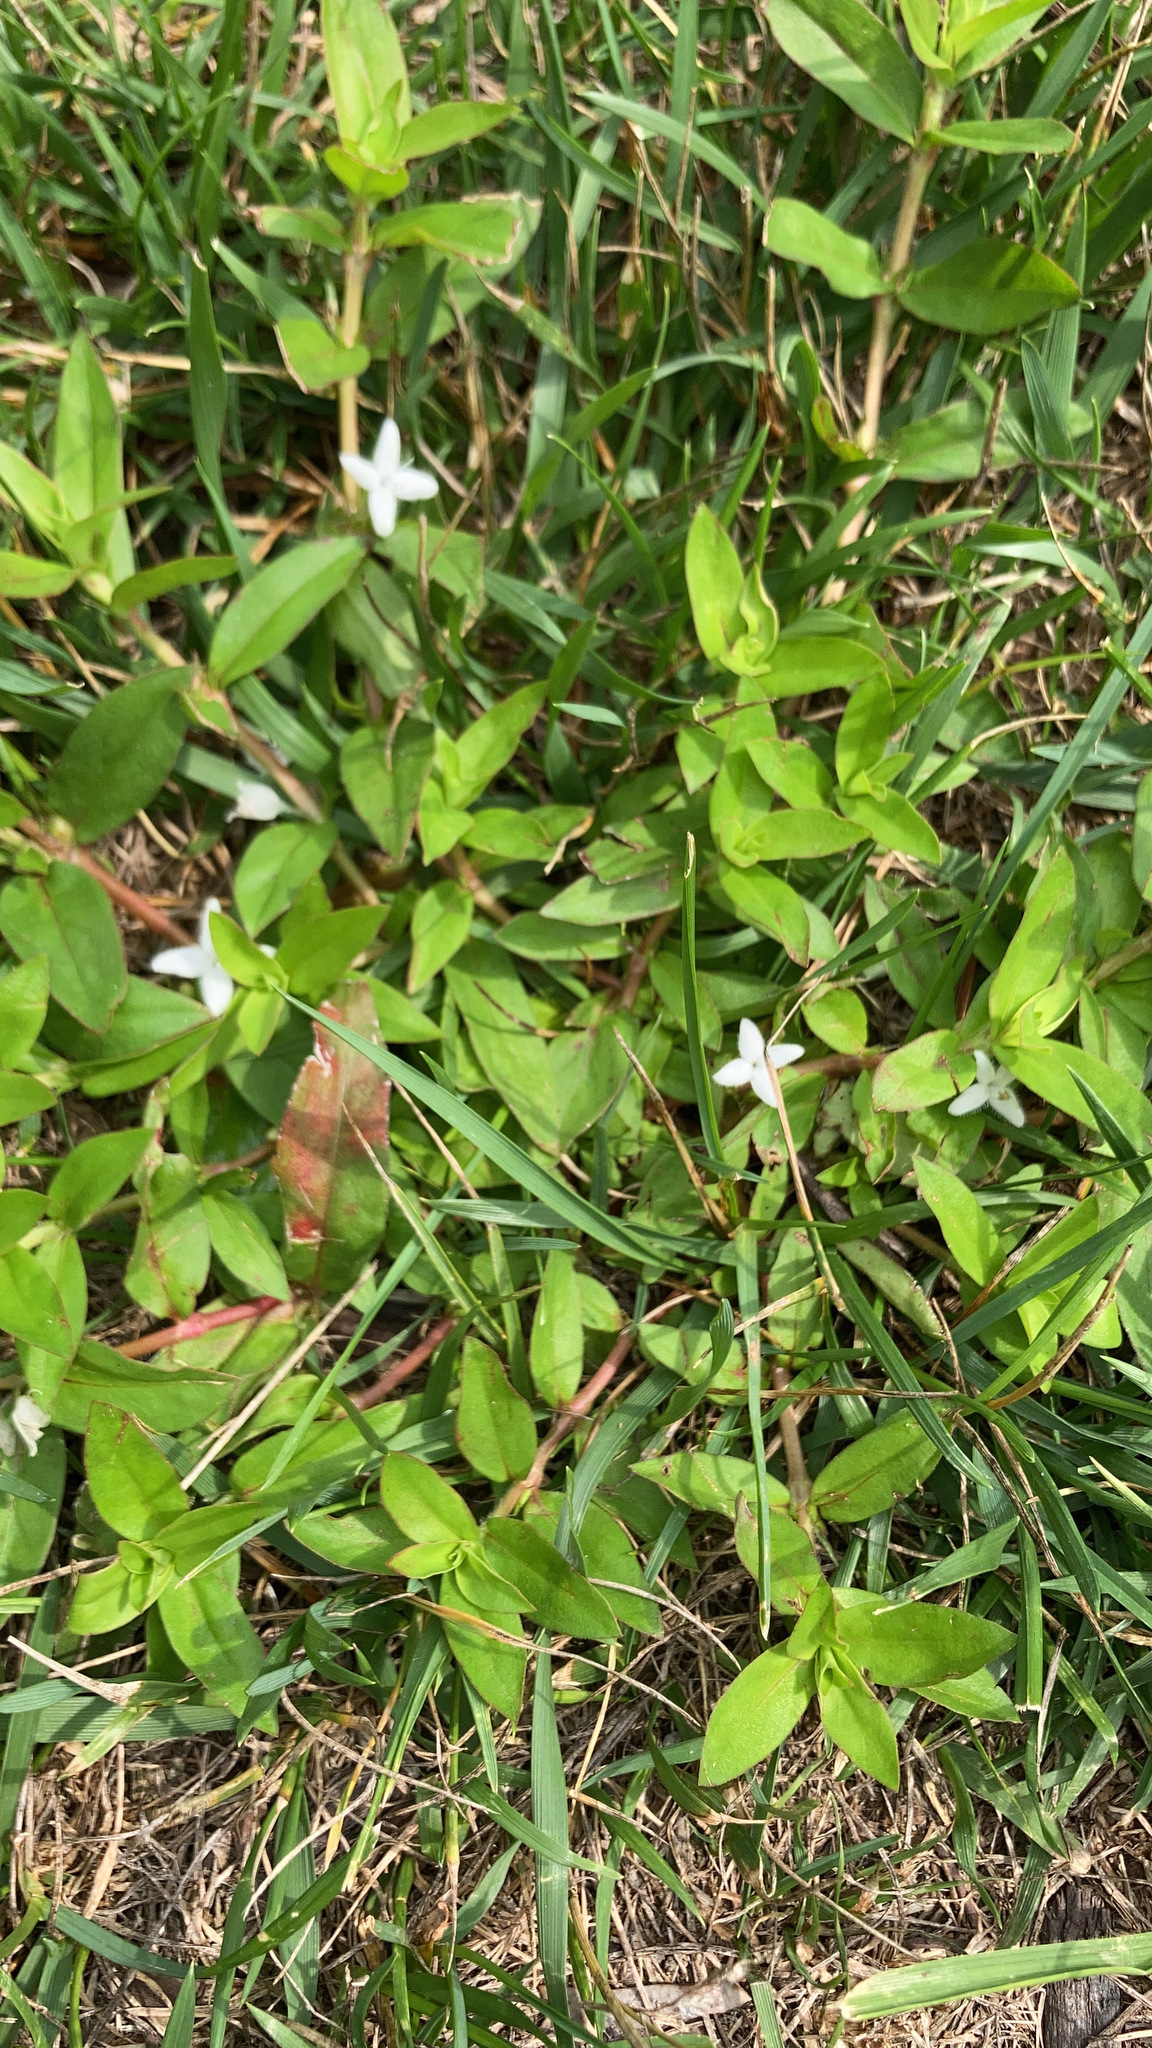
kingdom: Plantae
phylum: Tracheophyta
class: Magnoliopsida
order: Gentianales
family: Rubiaceae
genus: Diodia
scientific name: Diodia virginiana
